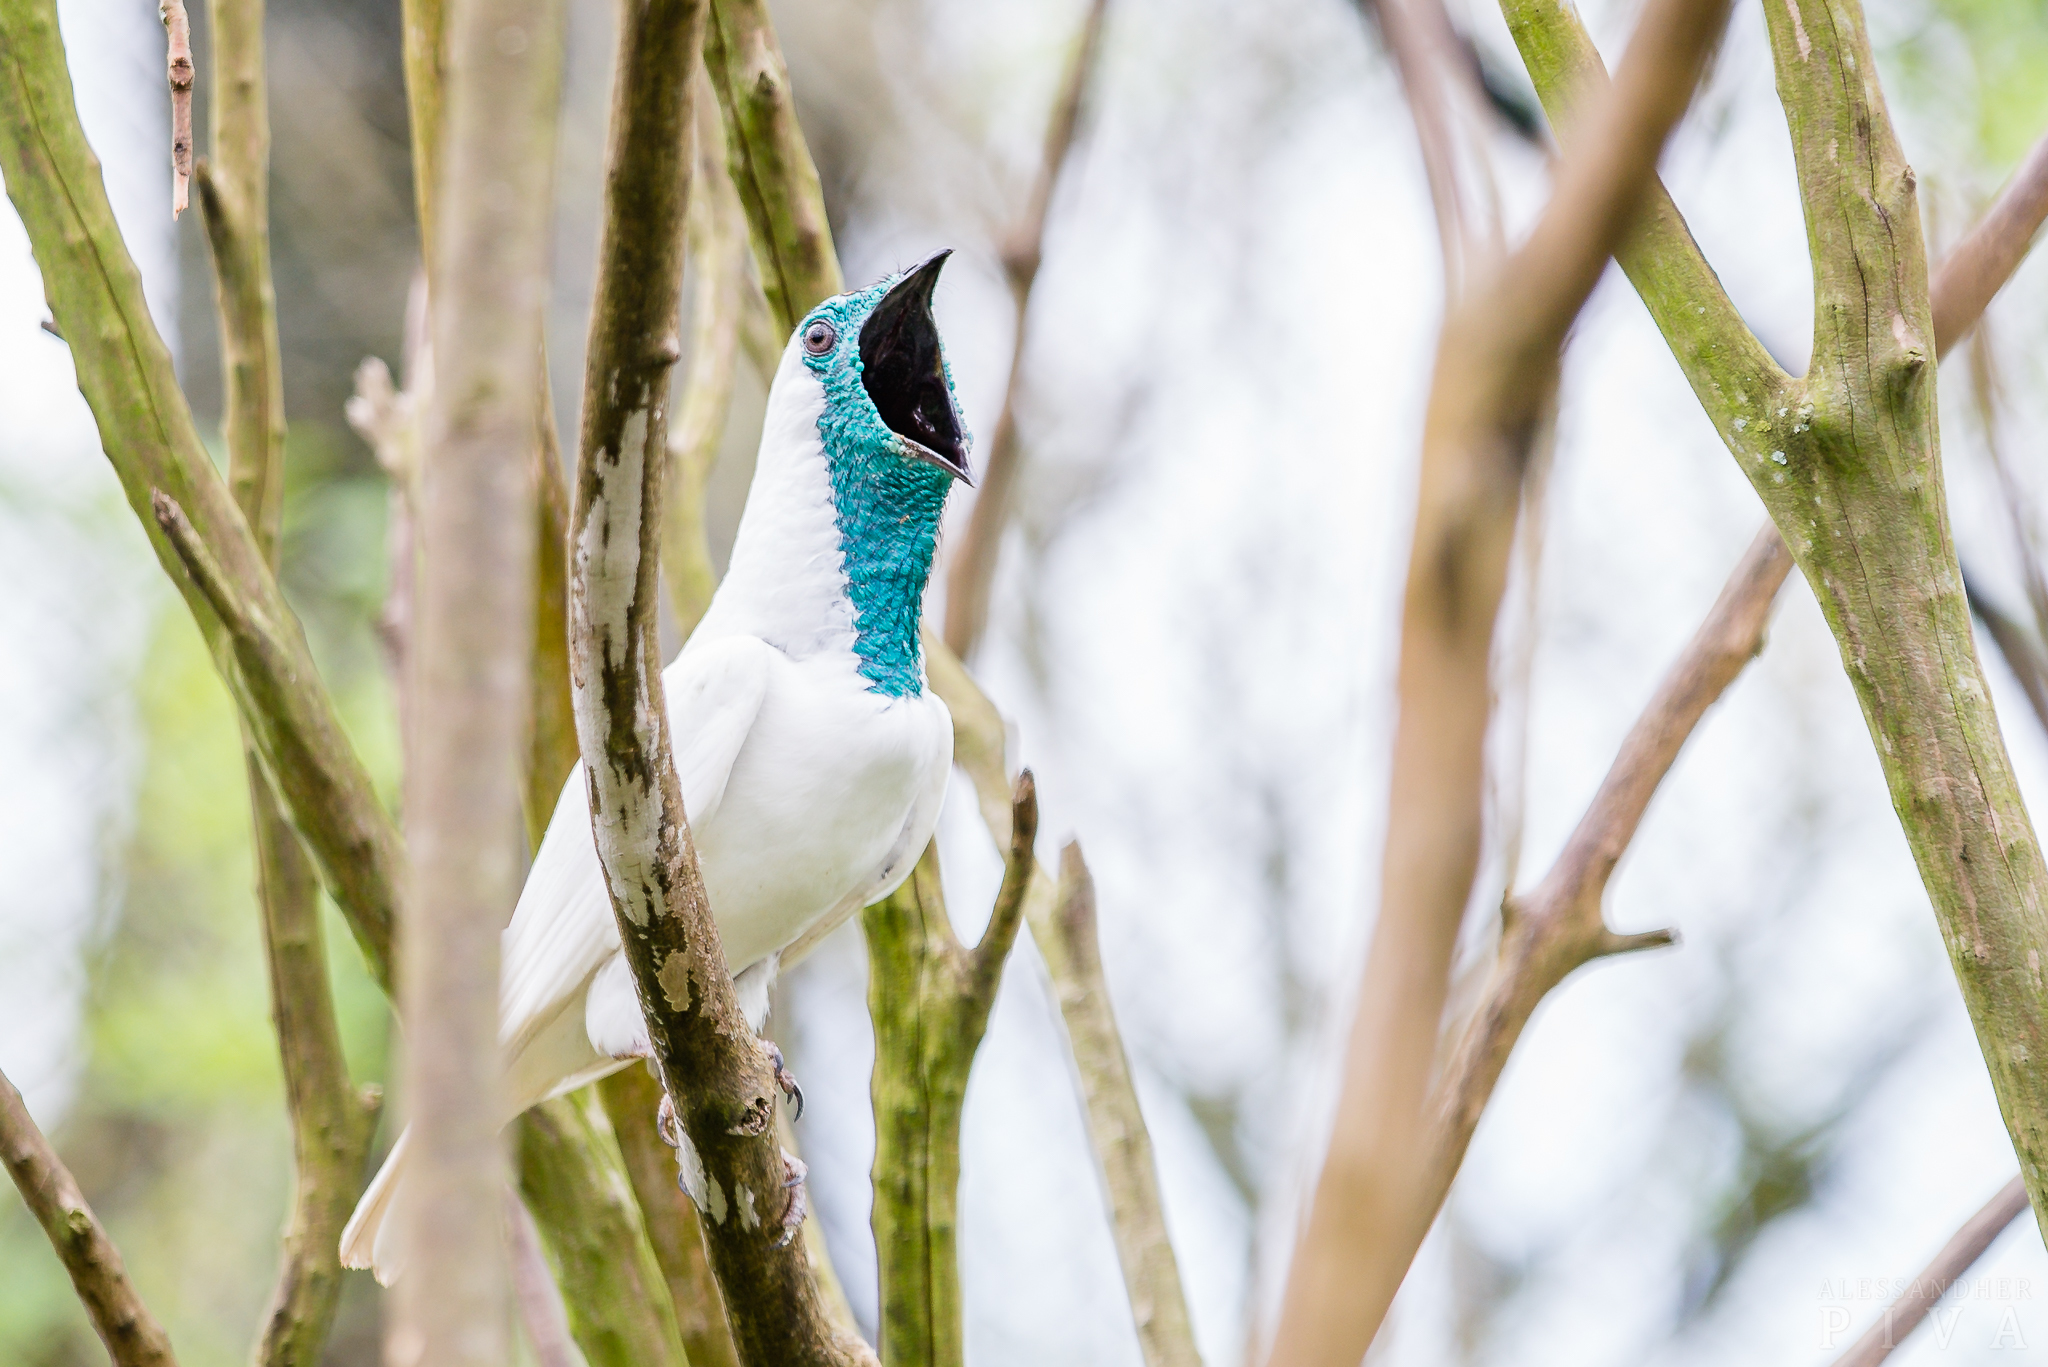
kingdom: Animalia
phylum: Chordata
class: Aves
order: Passeriformes
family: Cotingidae
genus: Procnias
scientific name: Procnias nudicollis
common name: Bare-throated bellbird
